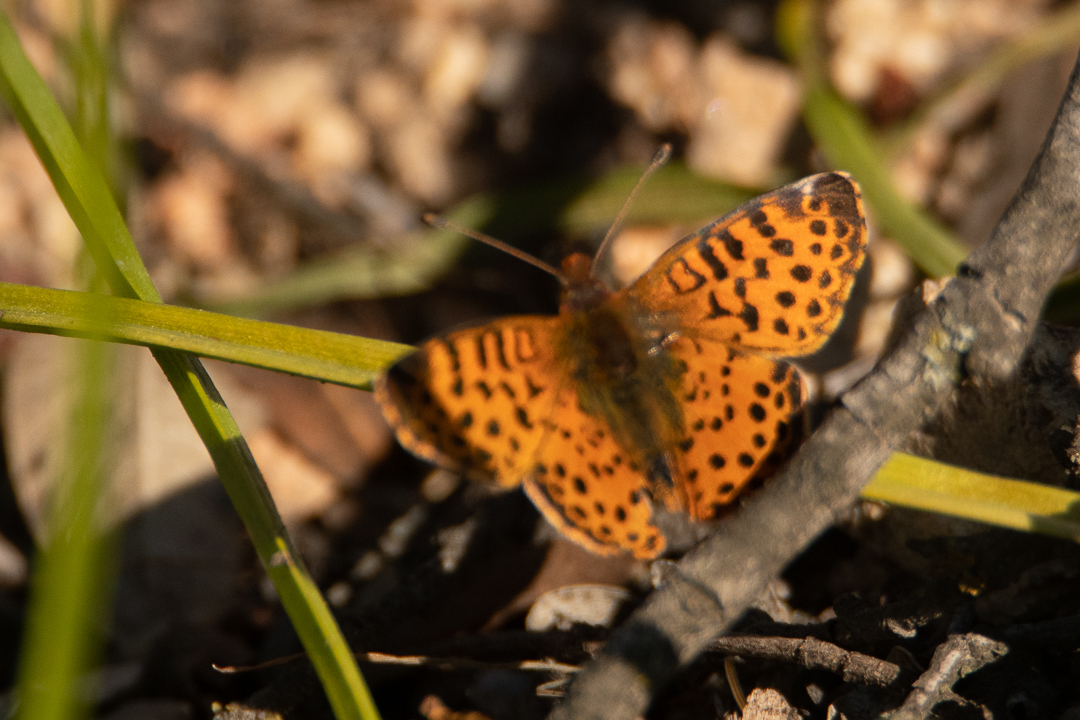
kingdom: Animalia
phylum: Arthropoda
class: Insecta
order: Lepidoptera
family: Nymphalidae
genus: Issoria
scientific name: Issoria Yramea cytheris
